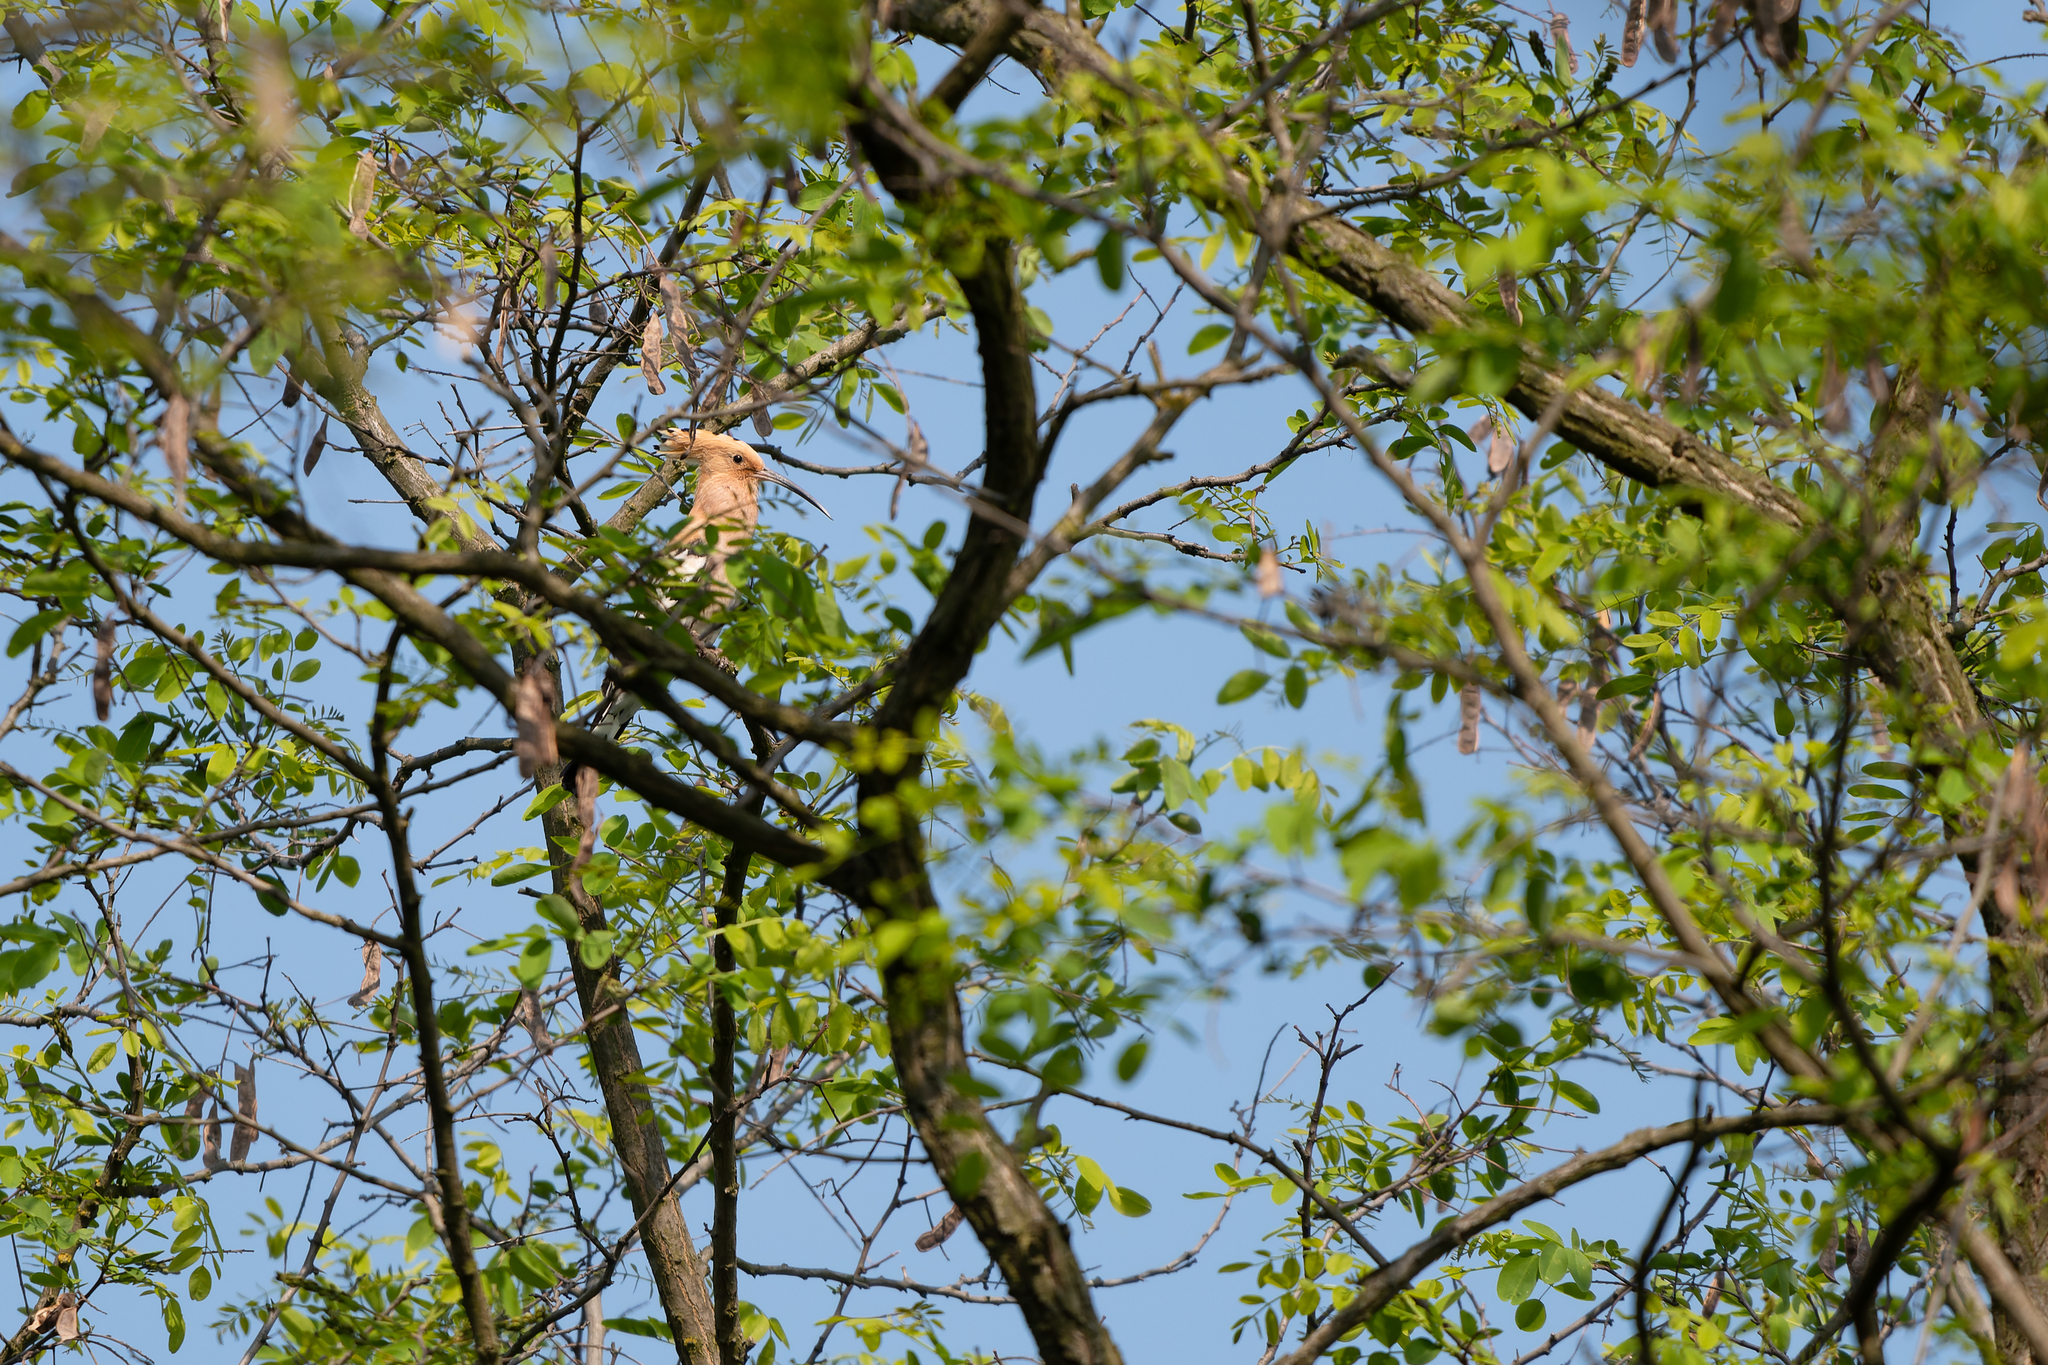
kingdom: Animalia
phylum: Chordata
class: Aves
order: Bucerotiformes
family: Upupidae
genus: Upupa
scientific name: Upupa epops
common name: Eurasian hoopoe
